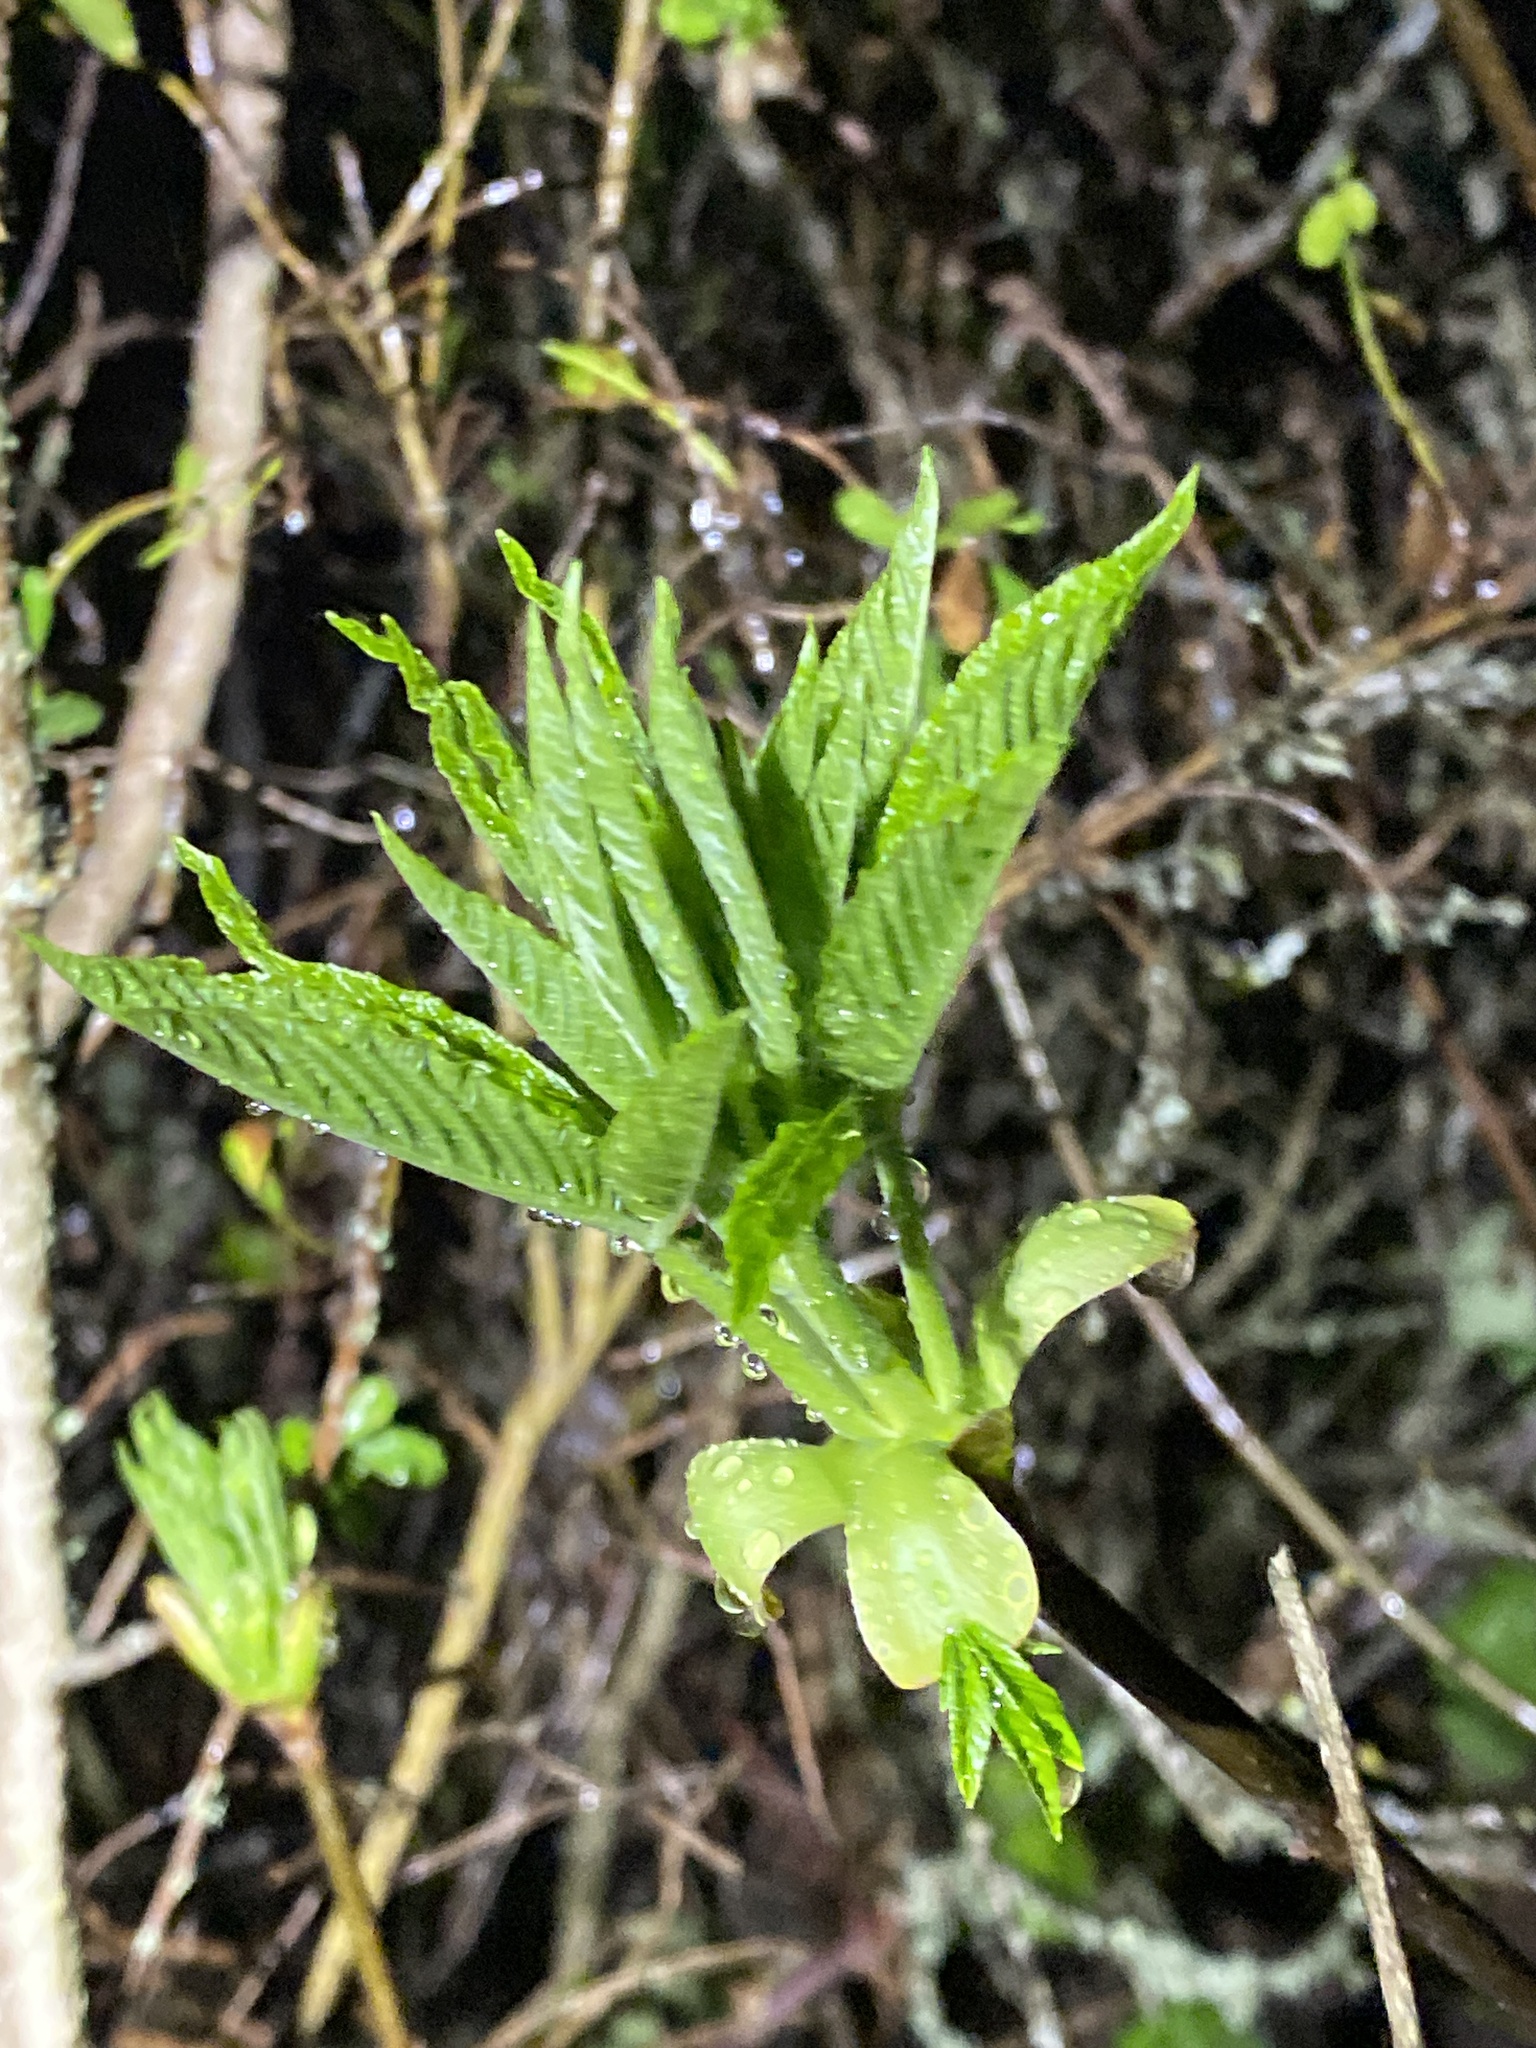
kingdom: Plantae
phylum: Tracheophyta
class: Magnoliopsida
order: Sapindales
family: Sapindaceae
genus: Aesculus
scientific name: Aesculus californica
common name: California buckeye
